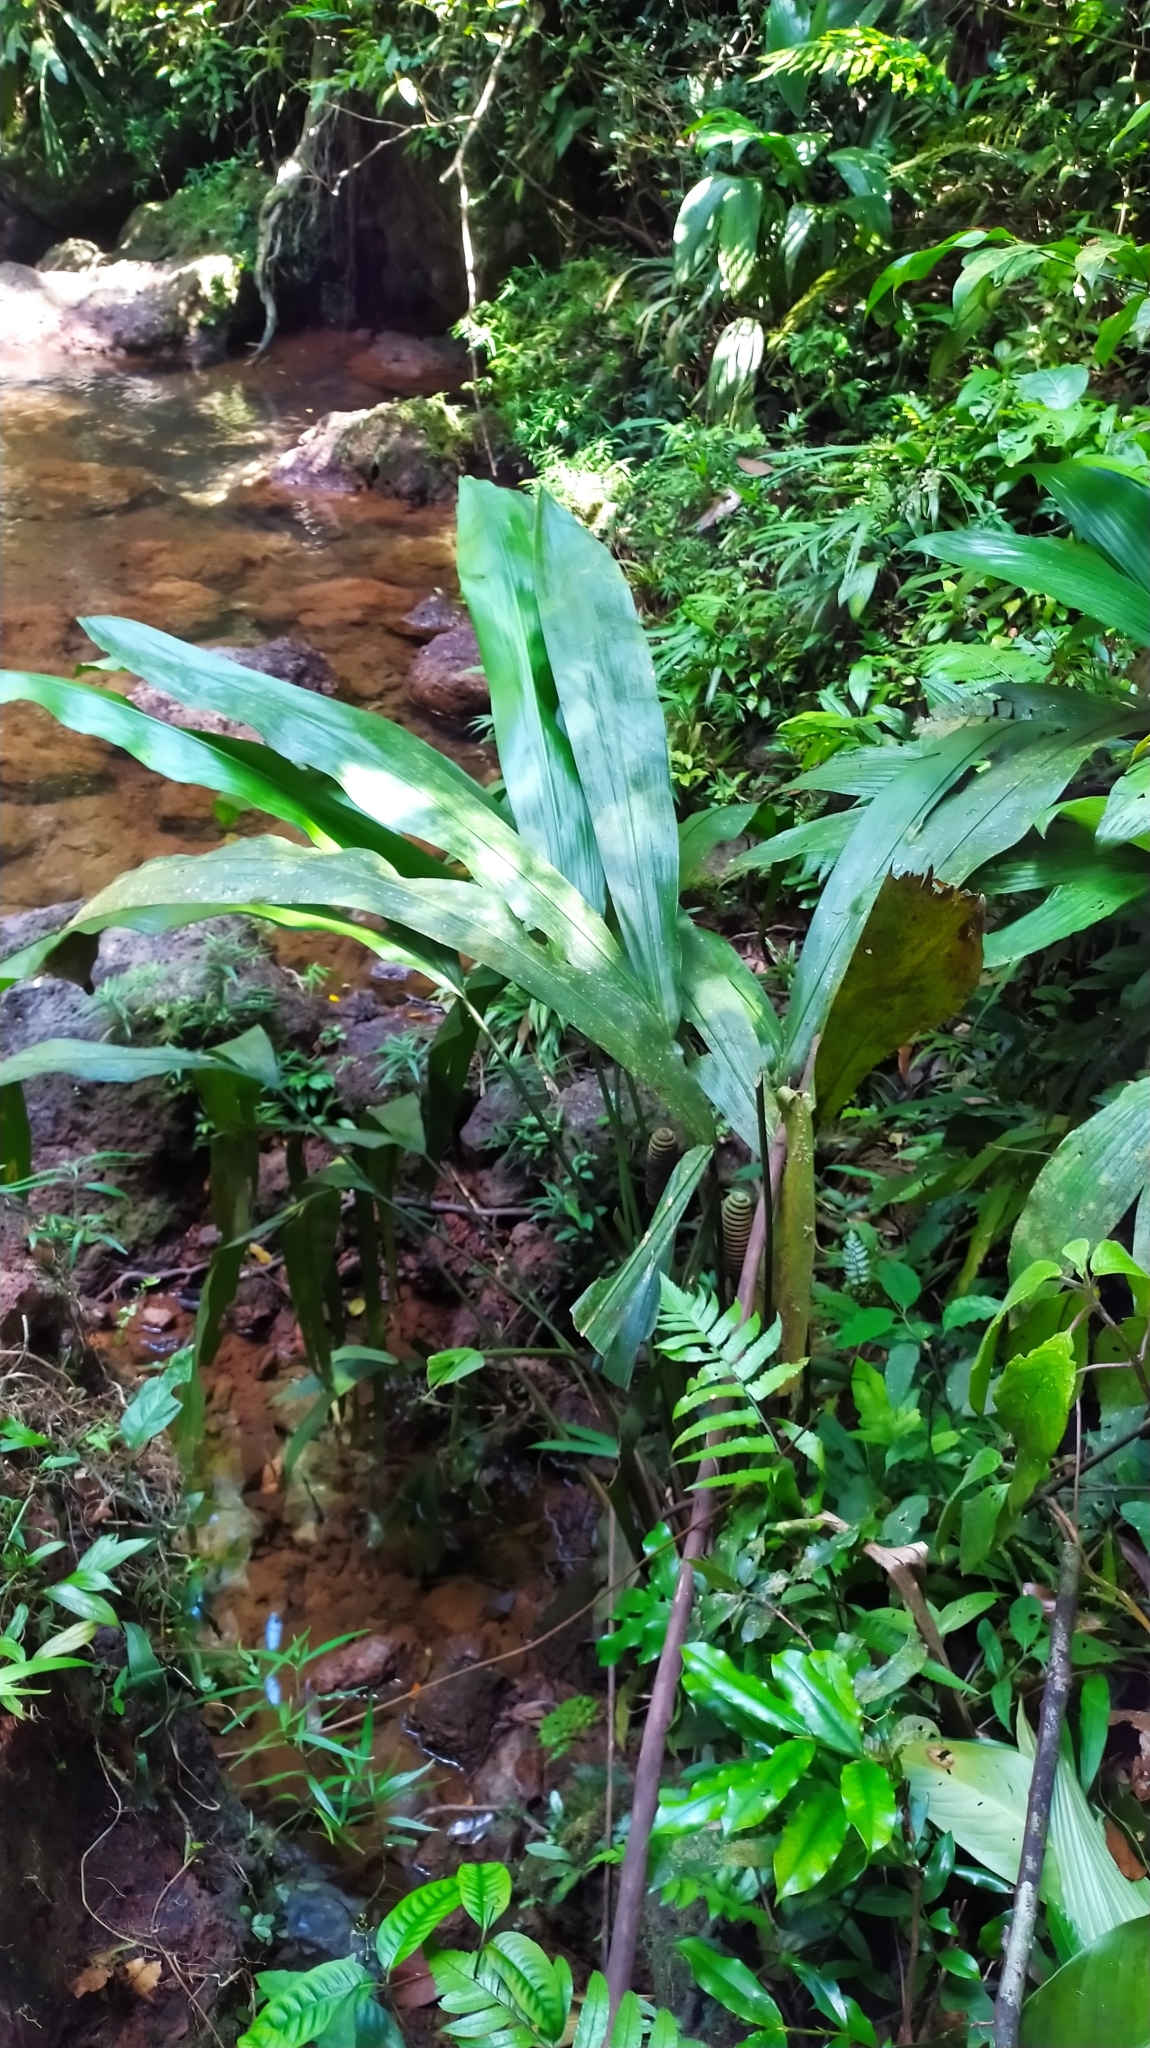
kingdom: Plantae
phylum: Tracheophyta
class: Liliopsida
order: Pandanales
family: Cyclanthaceae
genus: Cyclanthus
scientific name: Cyclanthus bipartitus
